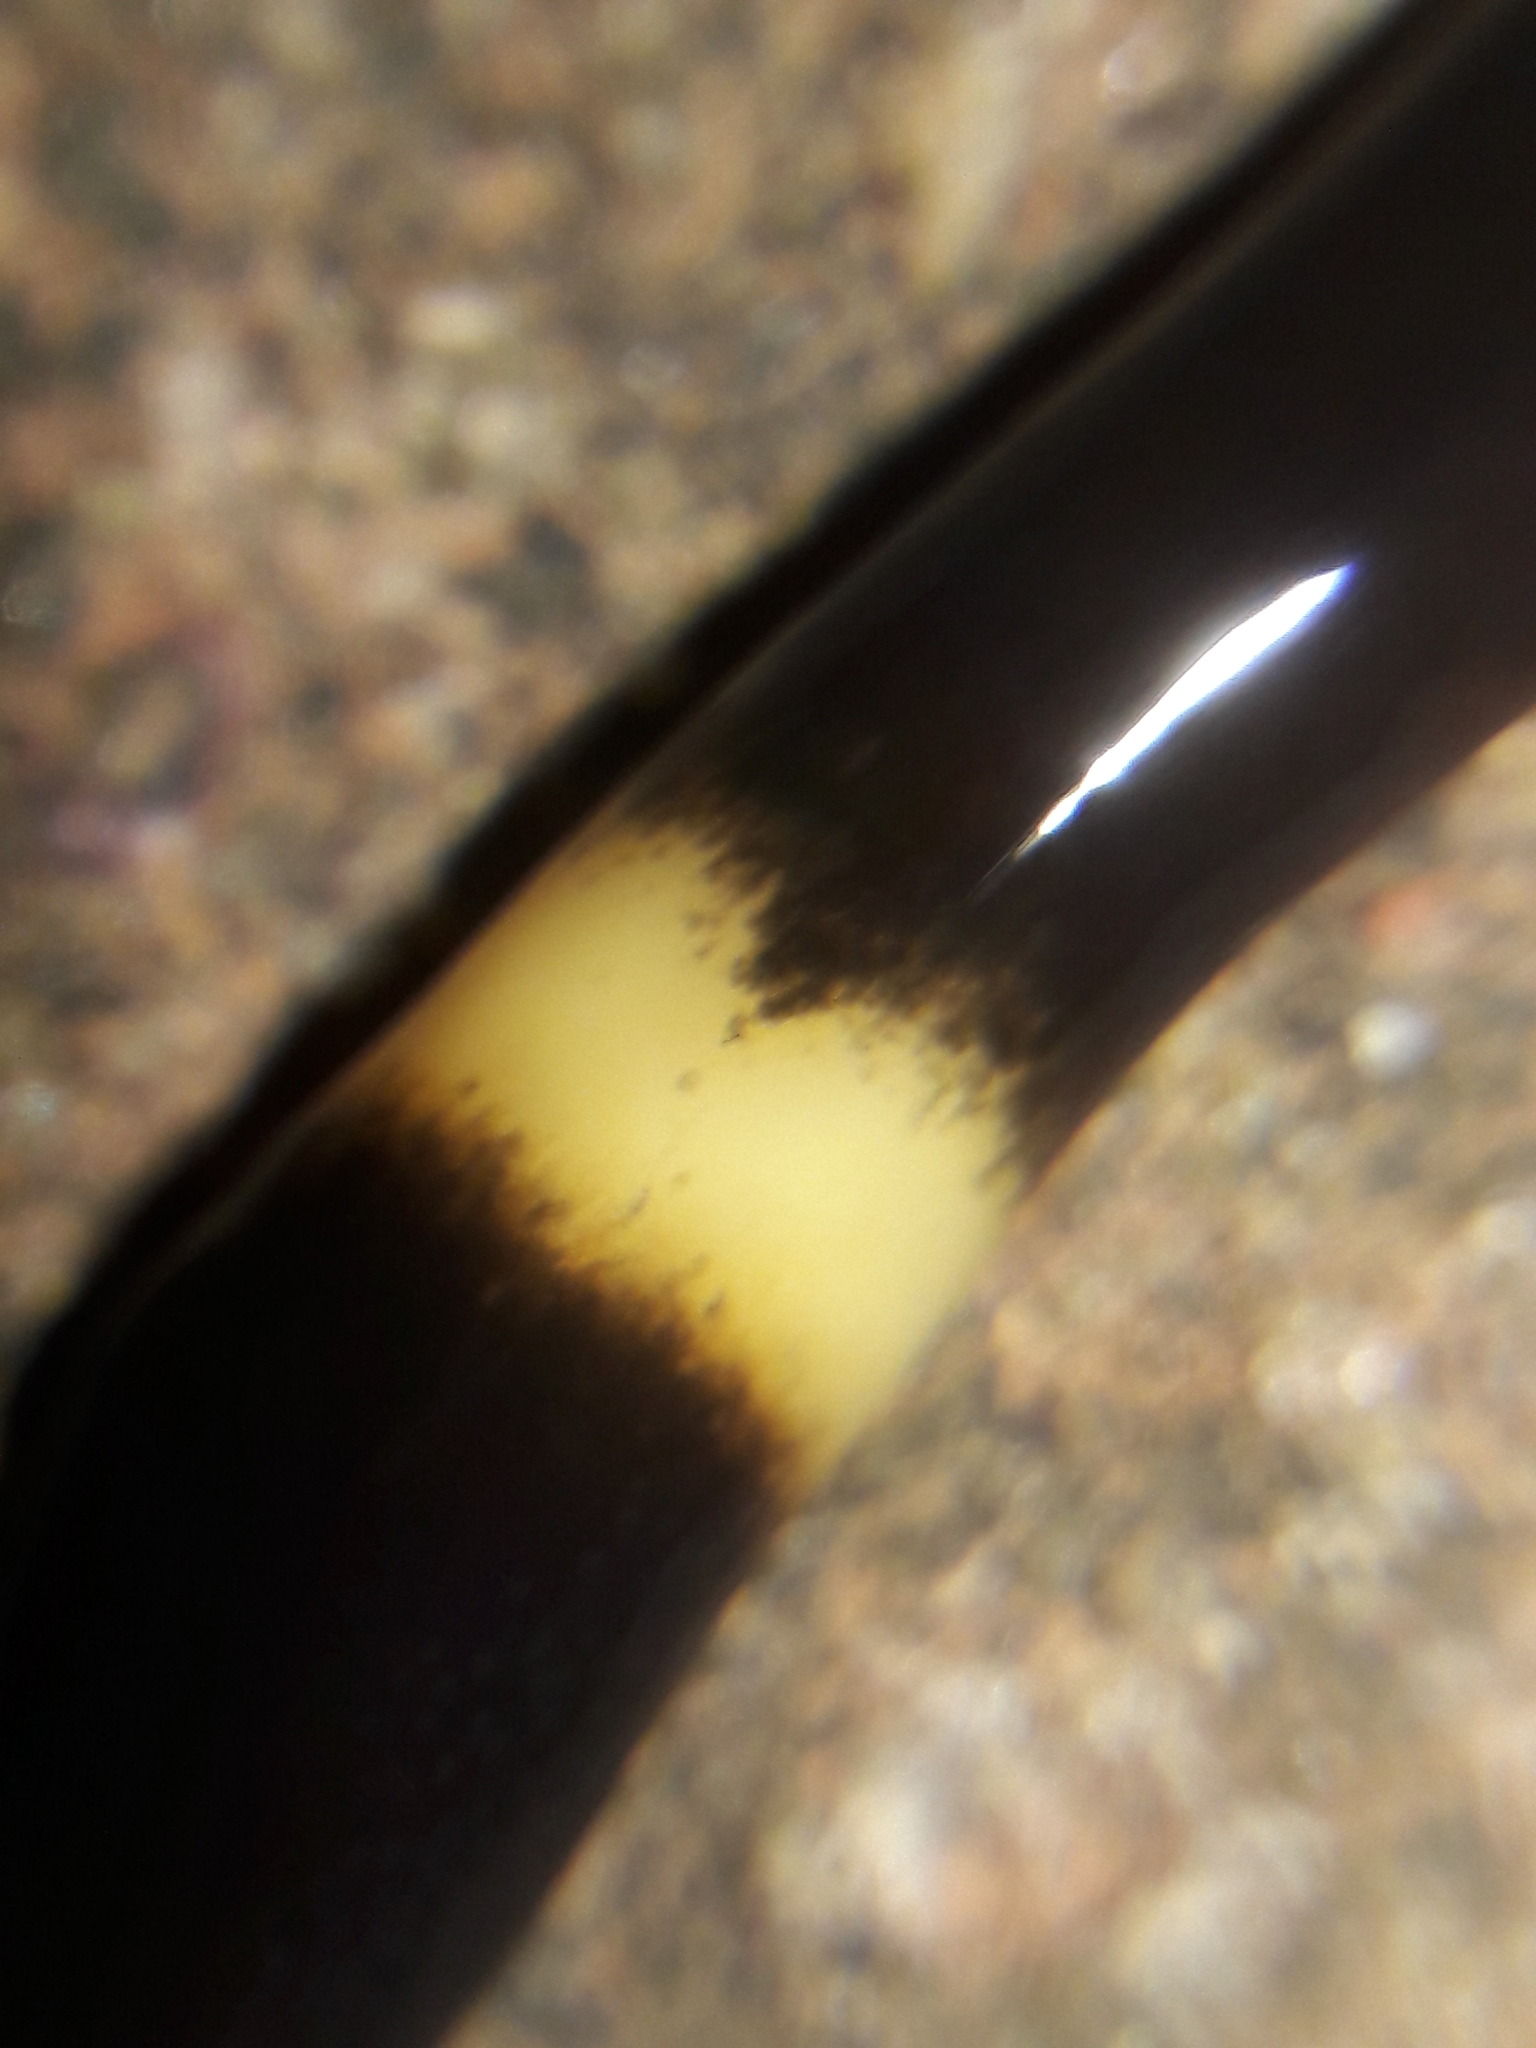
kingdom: Animalia
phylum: Platyhelminthes
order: Tricladida
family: Geoplanidae
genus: Paraba
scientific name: Paraba pankaru
